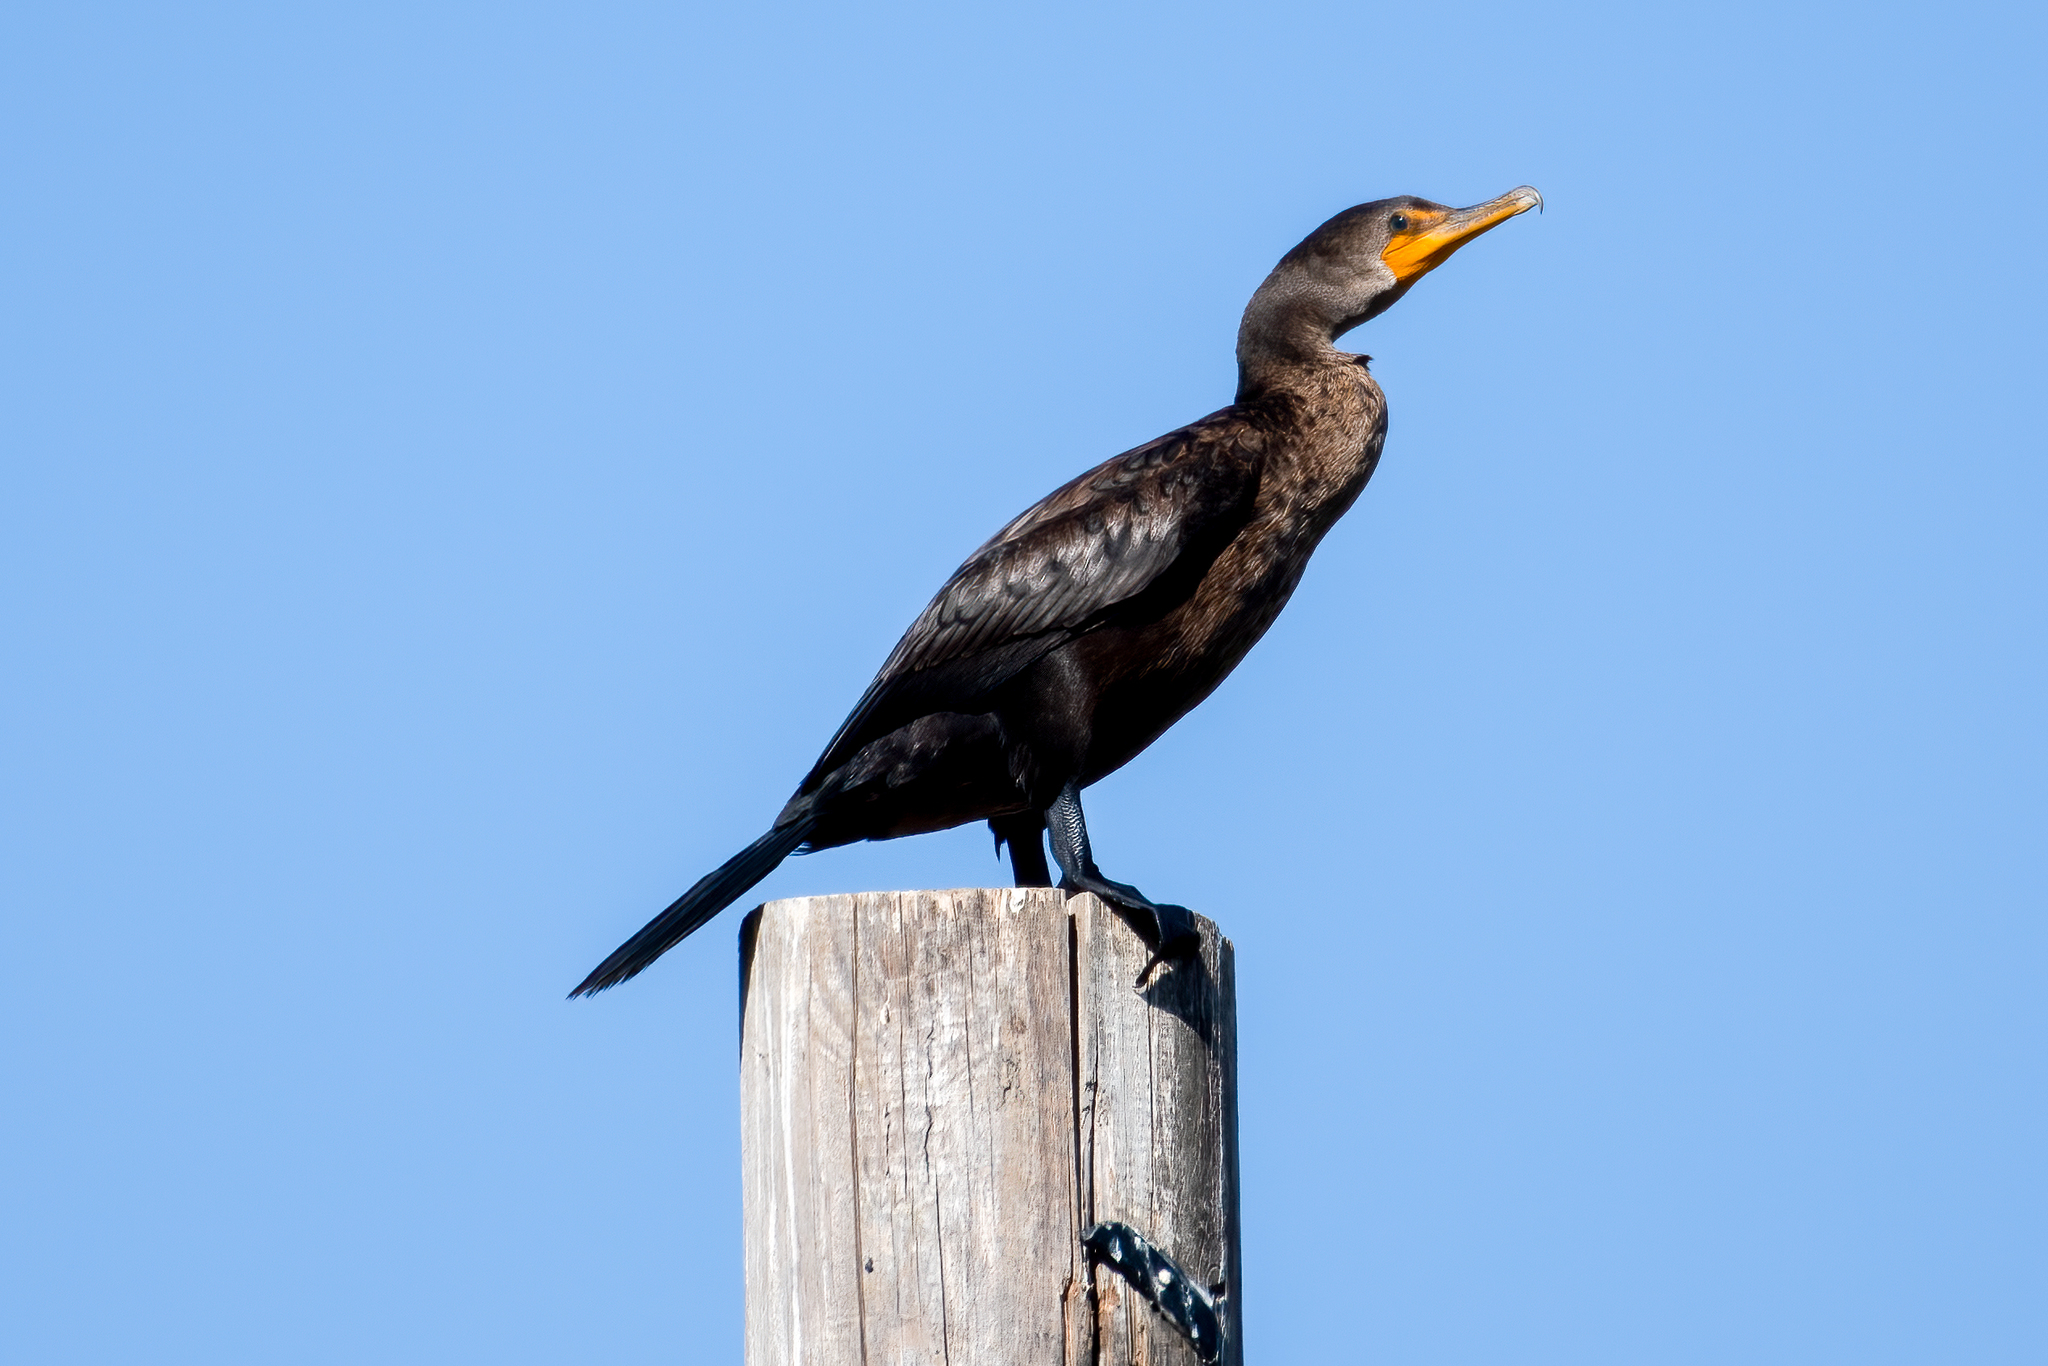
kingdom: Animalia
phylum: Chordata
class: Aves
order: Suliformes
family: Phalacrocoracidae
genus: Phalacrocorax
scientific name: Phalacrocorax auritus
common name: Double-crested cormorant
